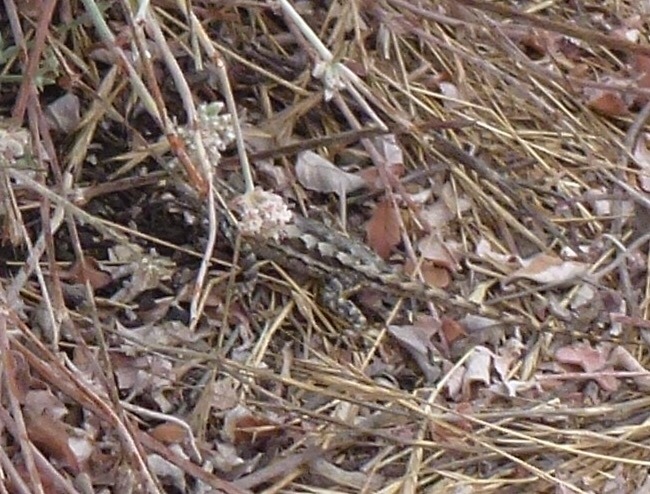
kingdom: Animalia
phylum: Chordata
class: Squamata
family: Phrynosomatidae
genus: Sceloporus
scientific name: Sceloporus occidentalis
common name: Western fence lizard
